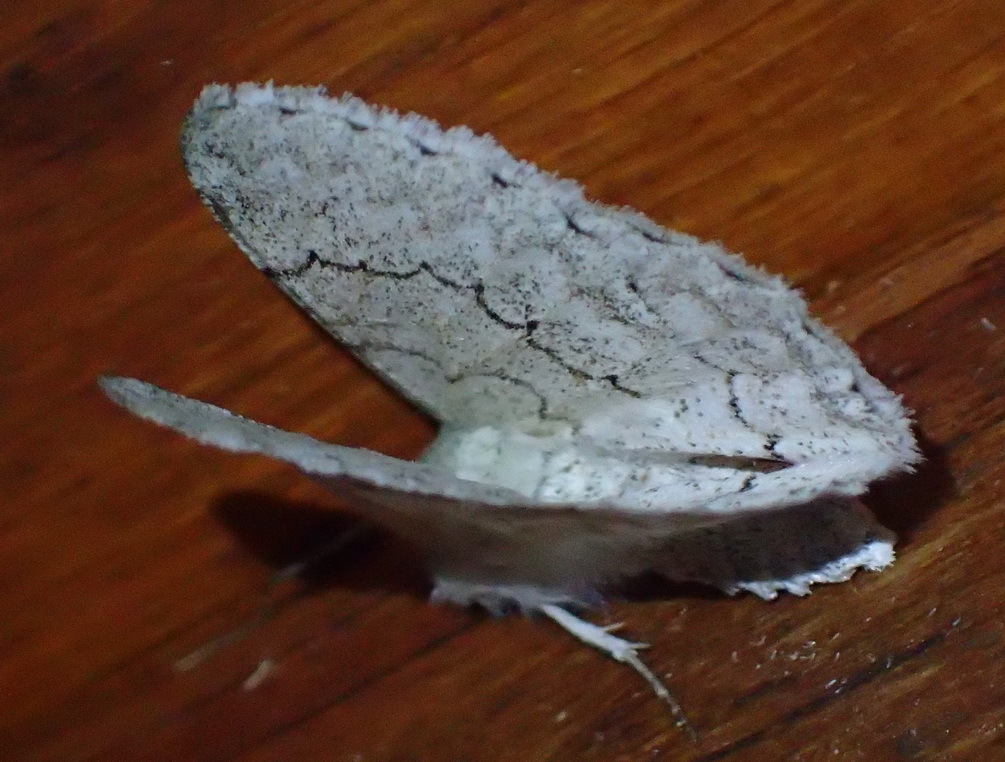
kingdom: Animalia
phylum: Arthropoda
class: Insecta
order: Lepidoptera
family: Geometridae
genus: Pingasa
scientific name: Pingasa abyssiniaria
